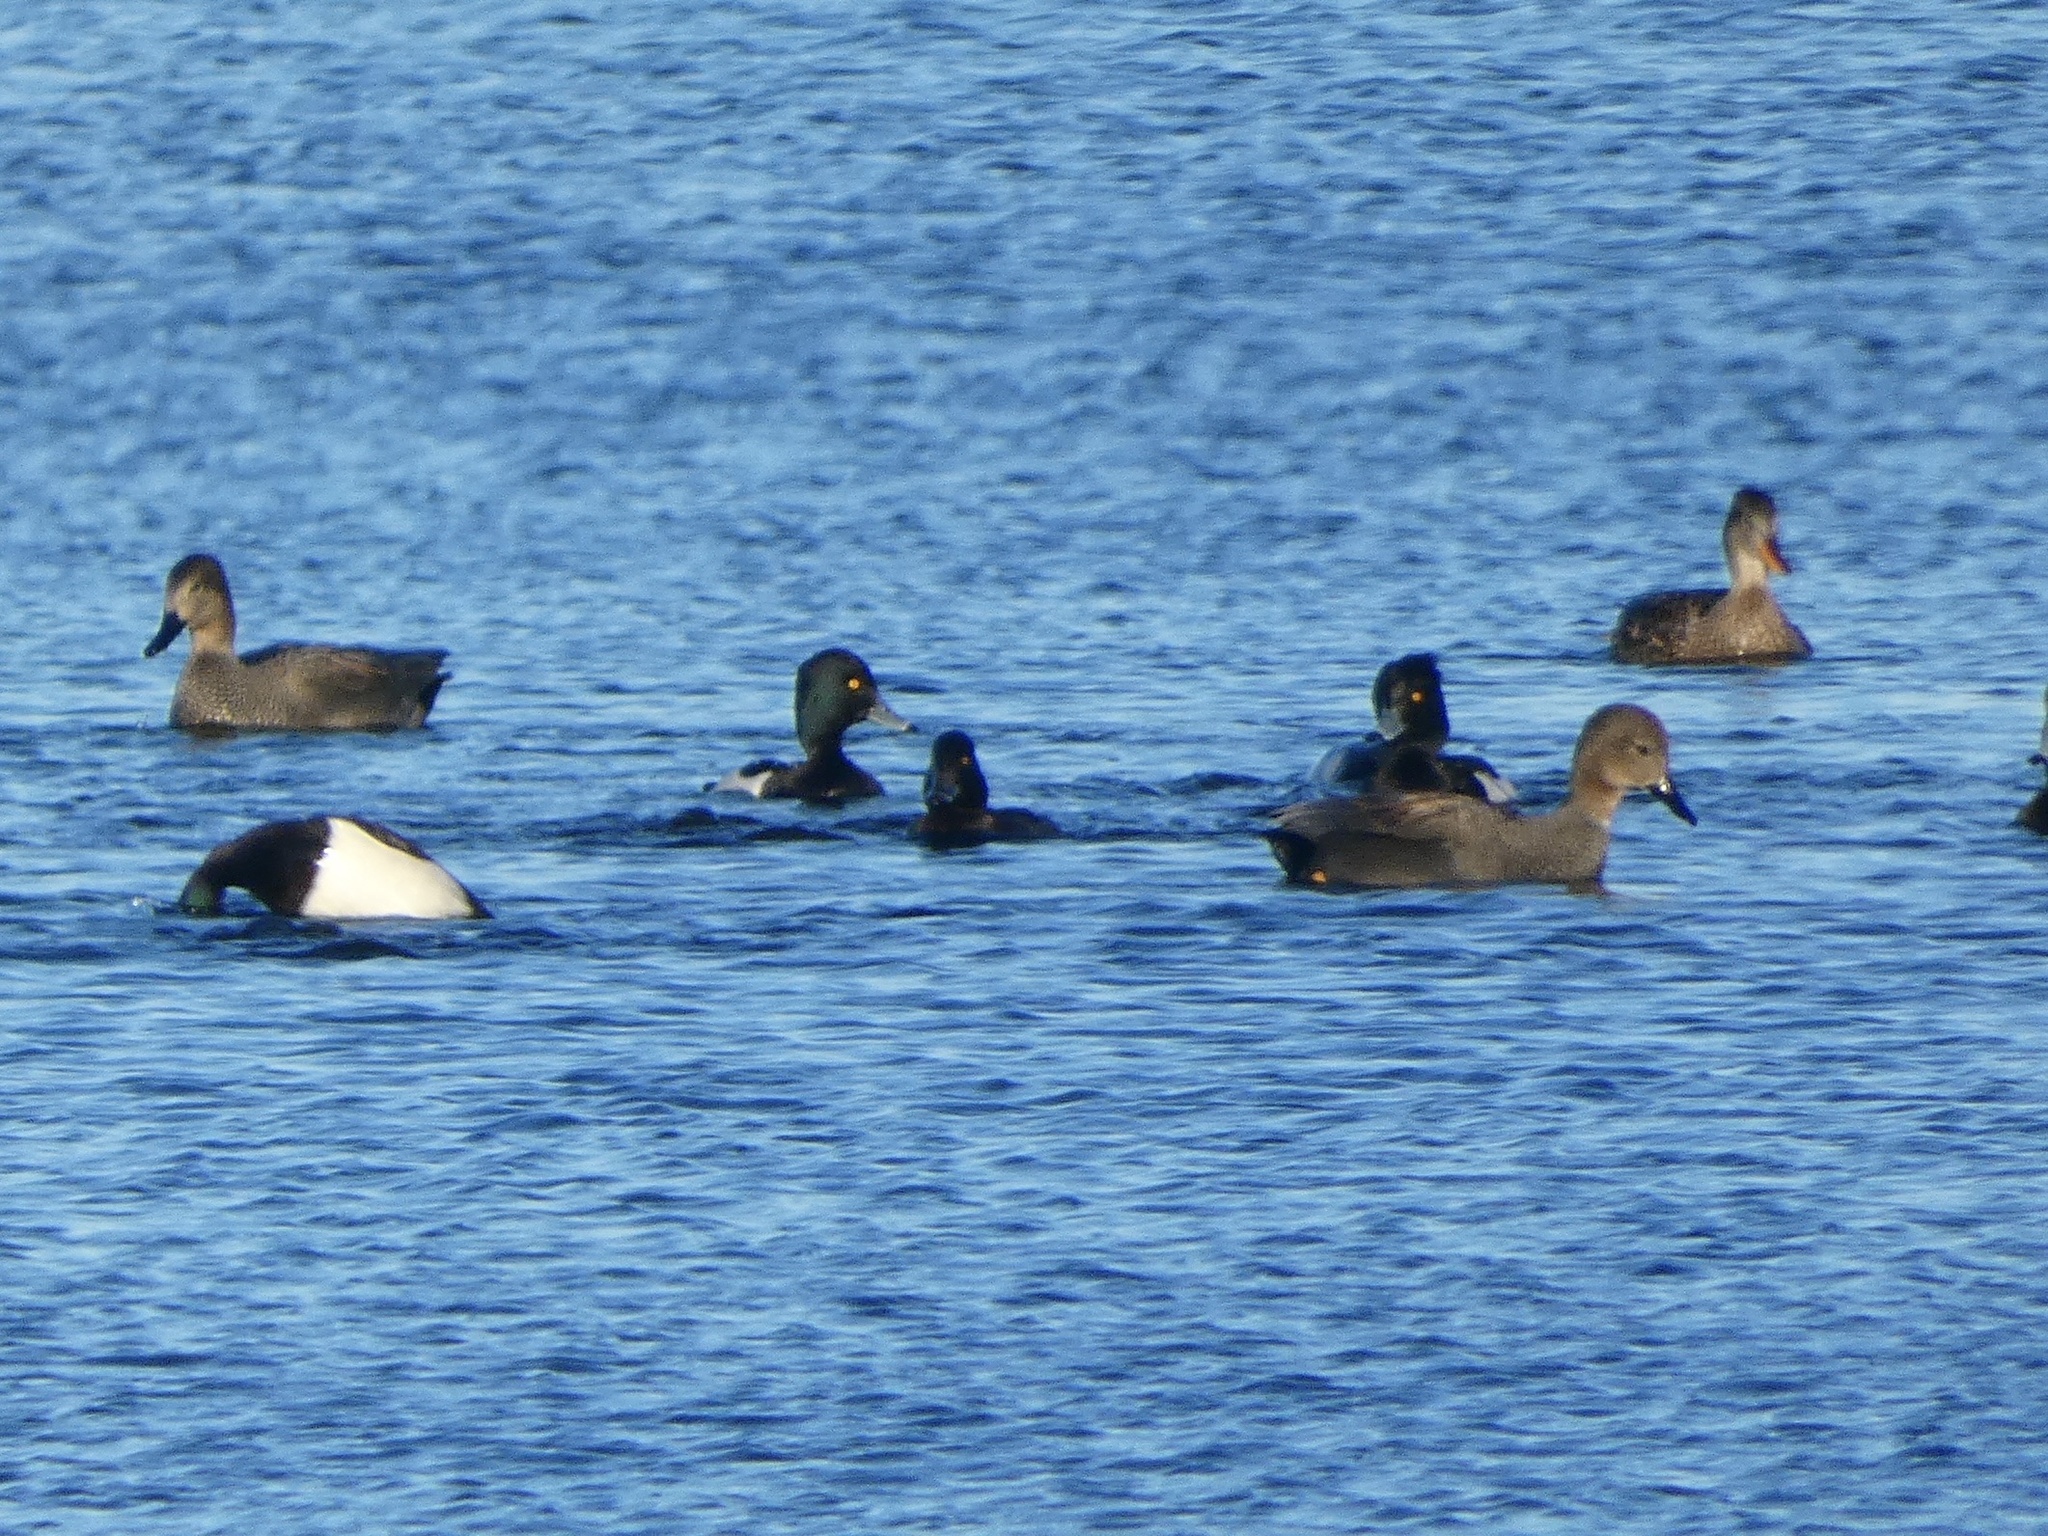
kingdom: Animalia
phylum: Chordata
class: Aves
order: Anseriformes
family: Anatidae
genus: Mareca
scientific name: Mareca strepera
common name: Gadwall
